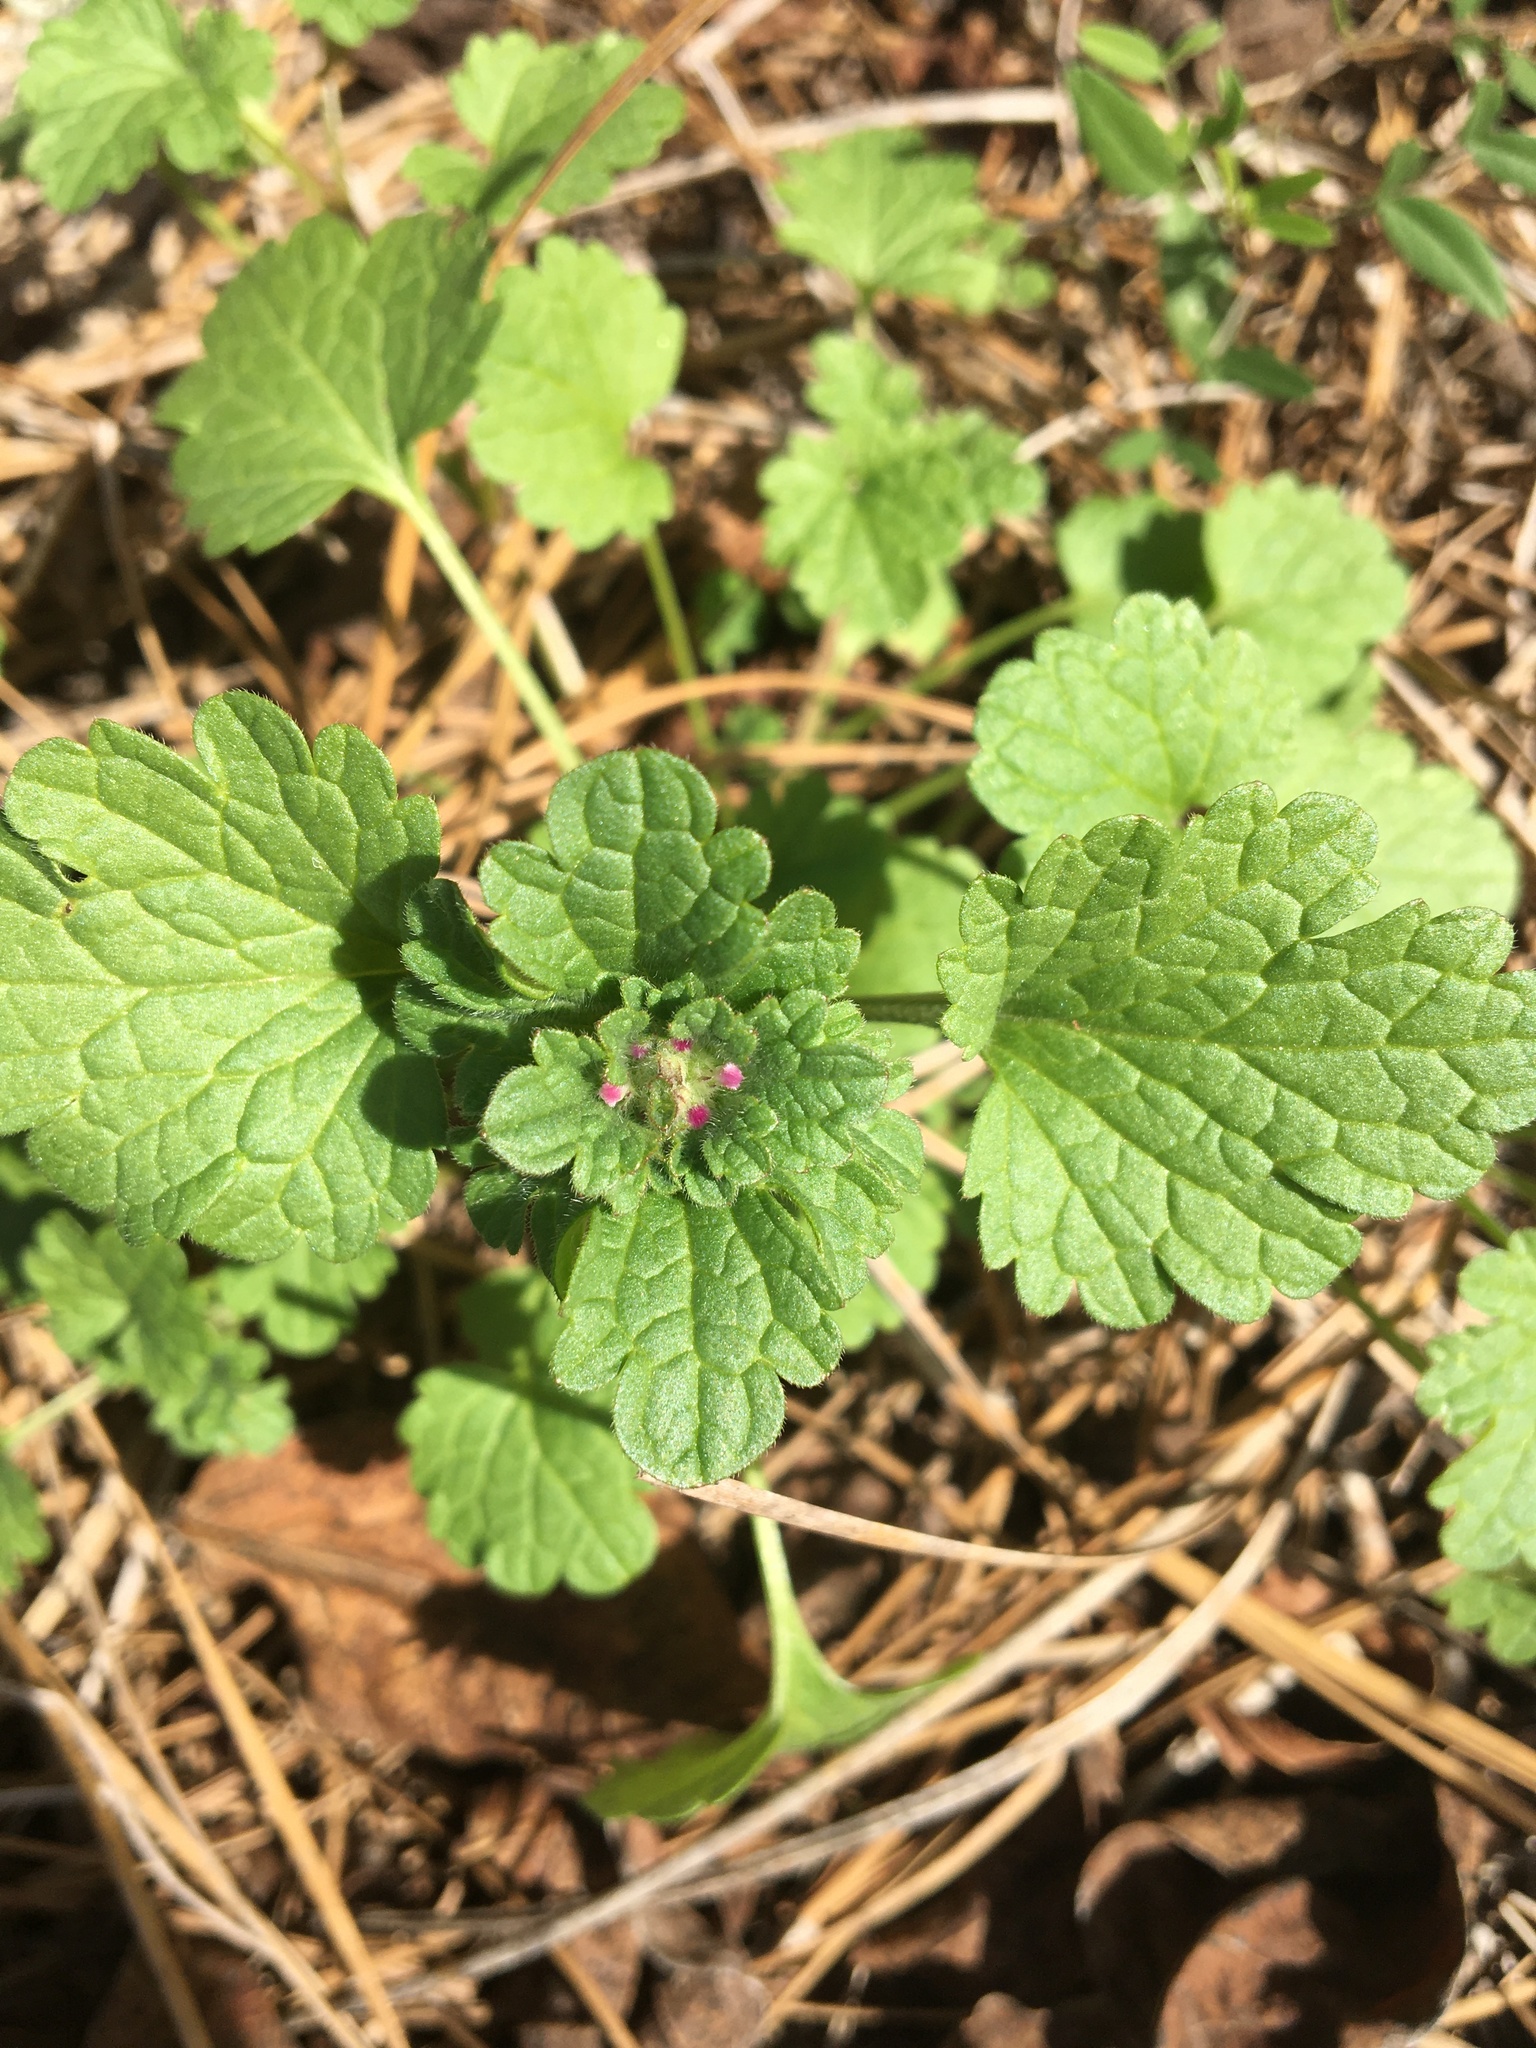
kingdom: Plantae
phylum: Tracheophyta
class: Magnoliopsida
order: Lamiales
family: Lamiaceae
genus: Lamium
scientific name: Lamium amplexicaule
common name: Henbit dead-nettle
